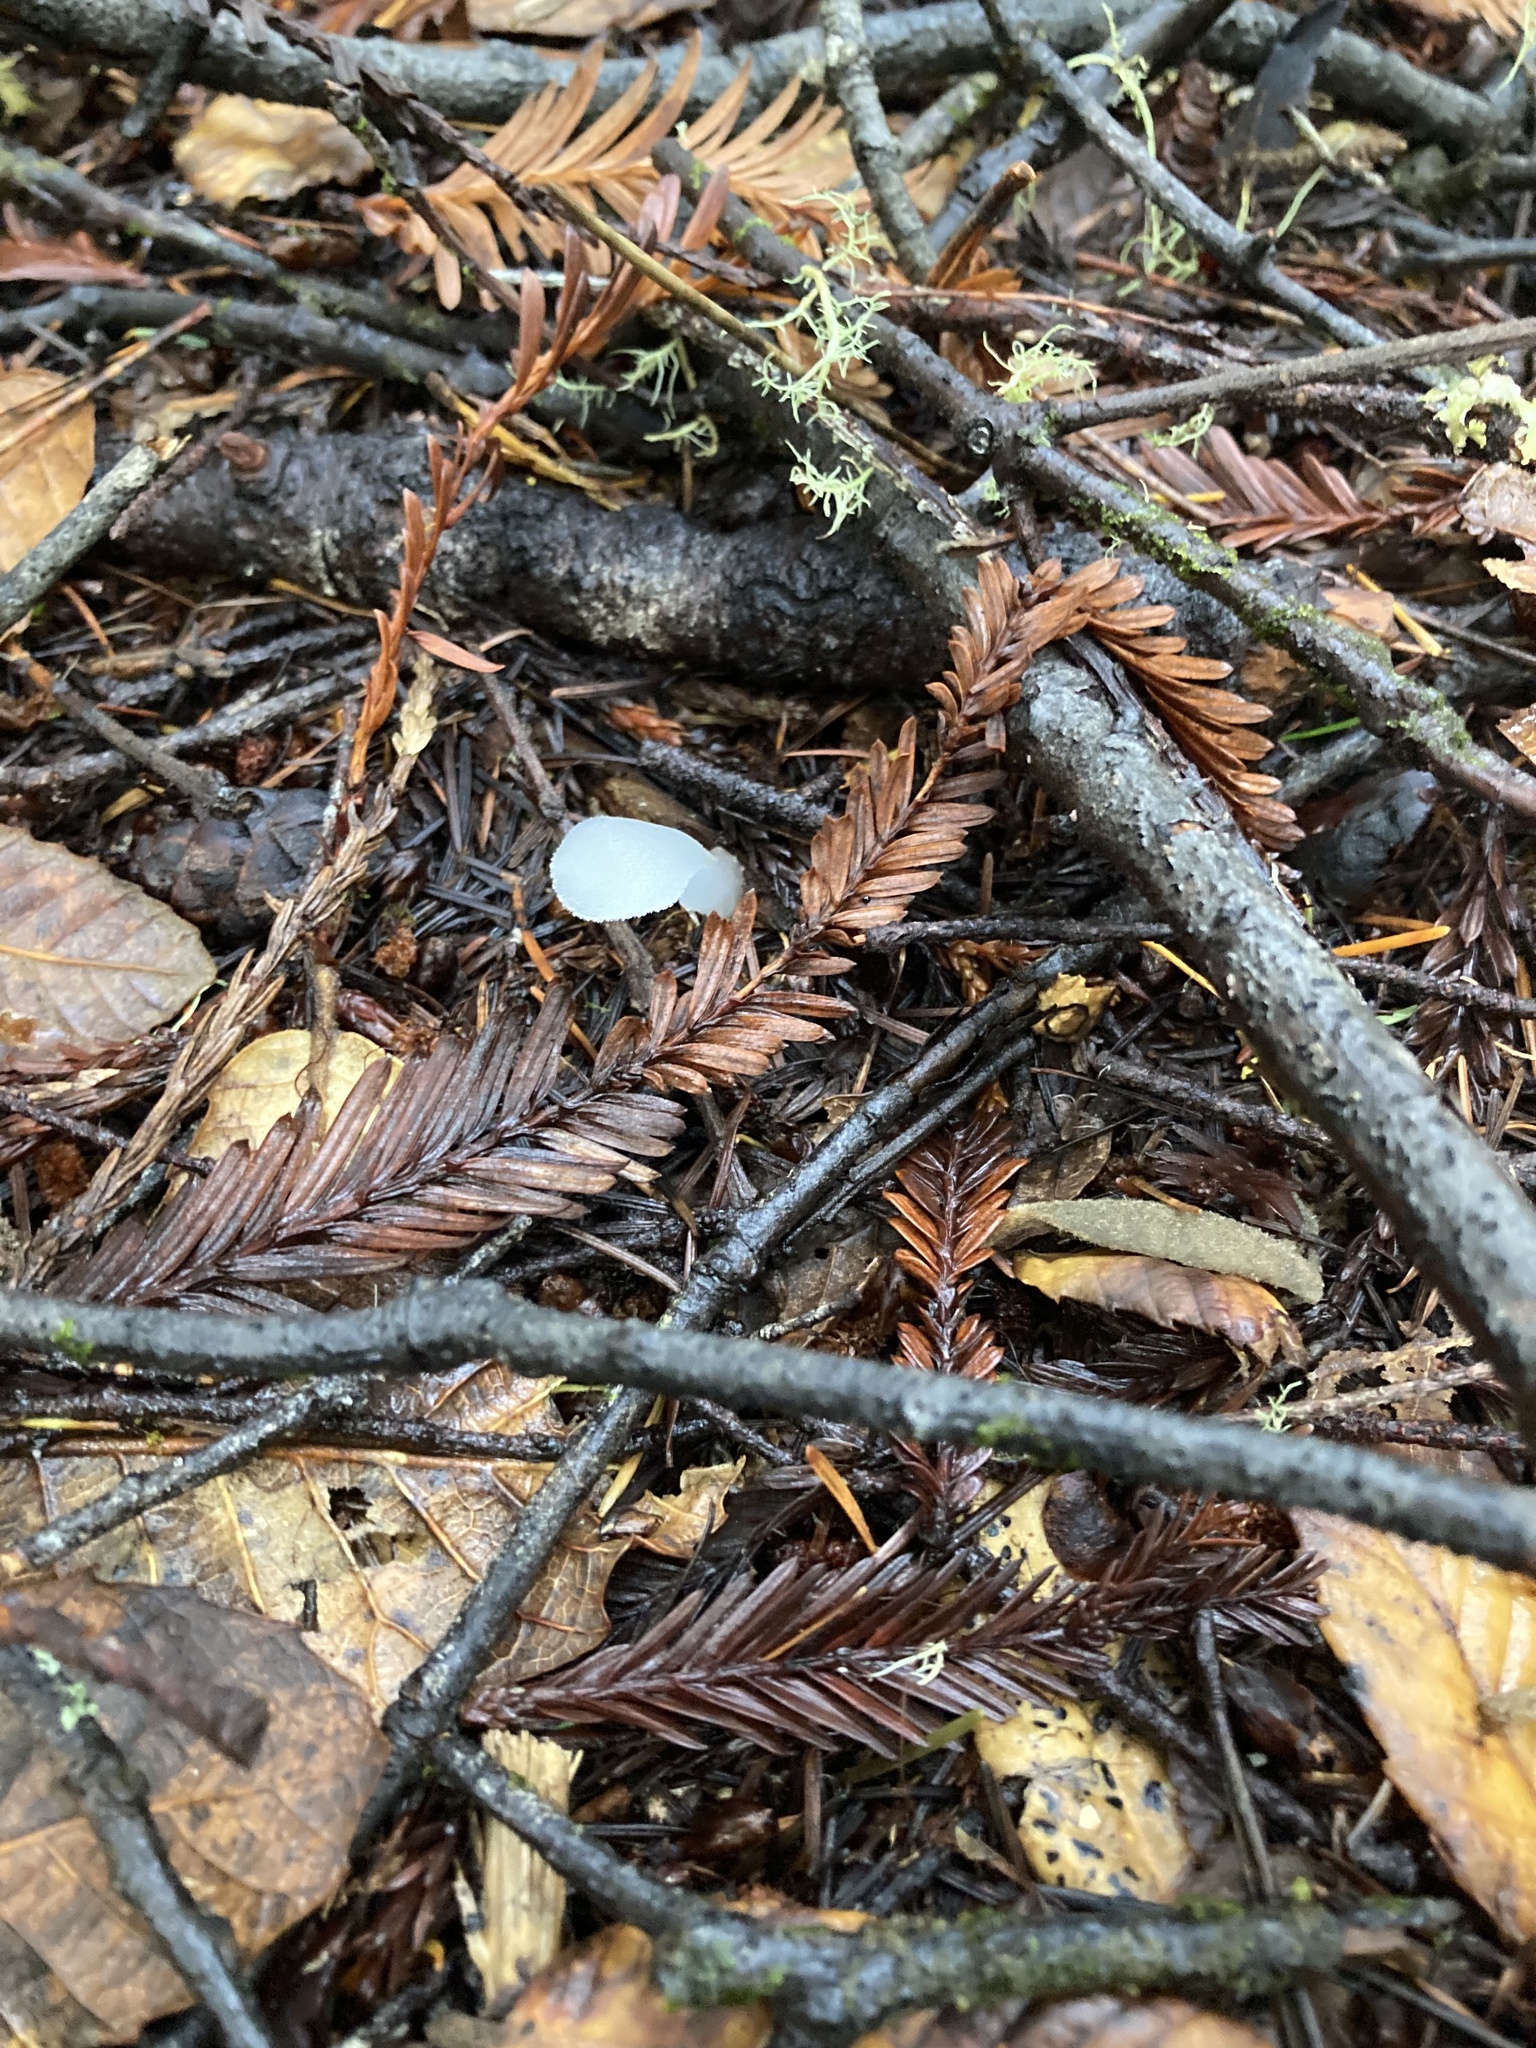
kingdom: Fungi
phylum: Basidiomycota
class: Agaricomycetes
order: Auriculariales
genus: Pseudohydnum
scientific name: Pseudohydnum gelatinosum
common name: Jelly tongue
